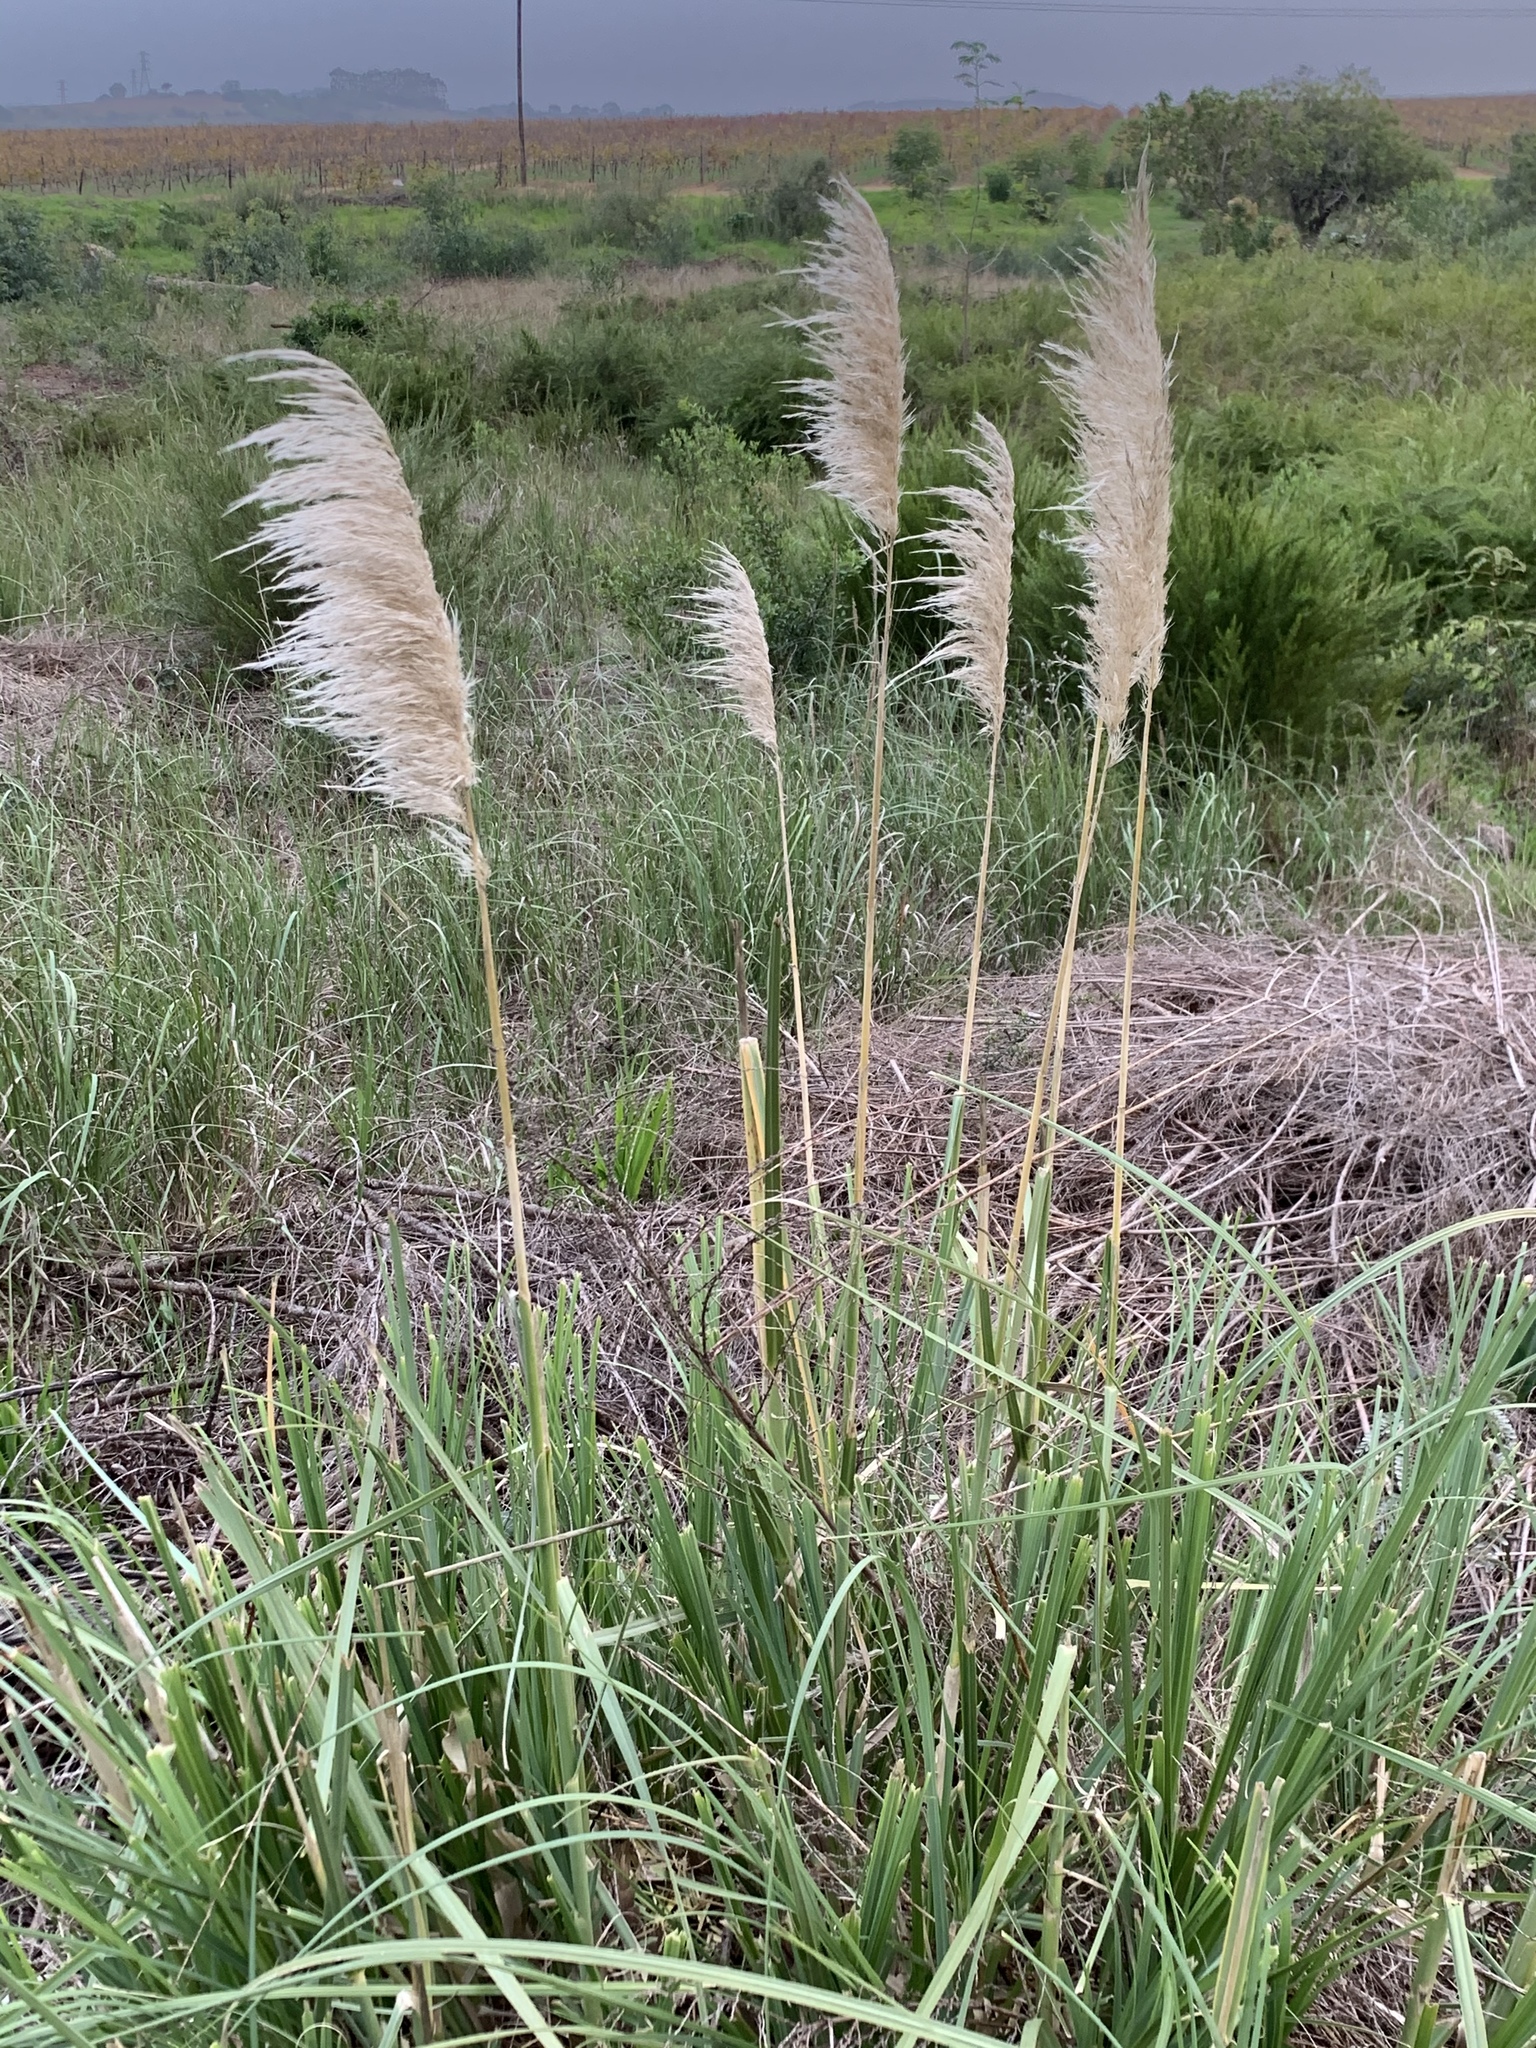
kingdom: Plantae
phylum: Tracheophyta
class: Liliopsida
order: Poales
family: Poaceae
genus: Cortaderia
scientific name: Cortaderia selloana
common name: Uruguayan pampas grass
